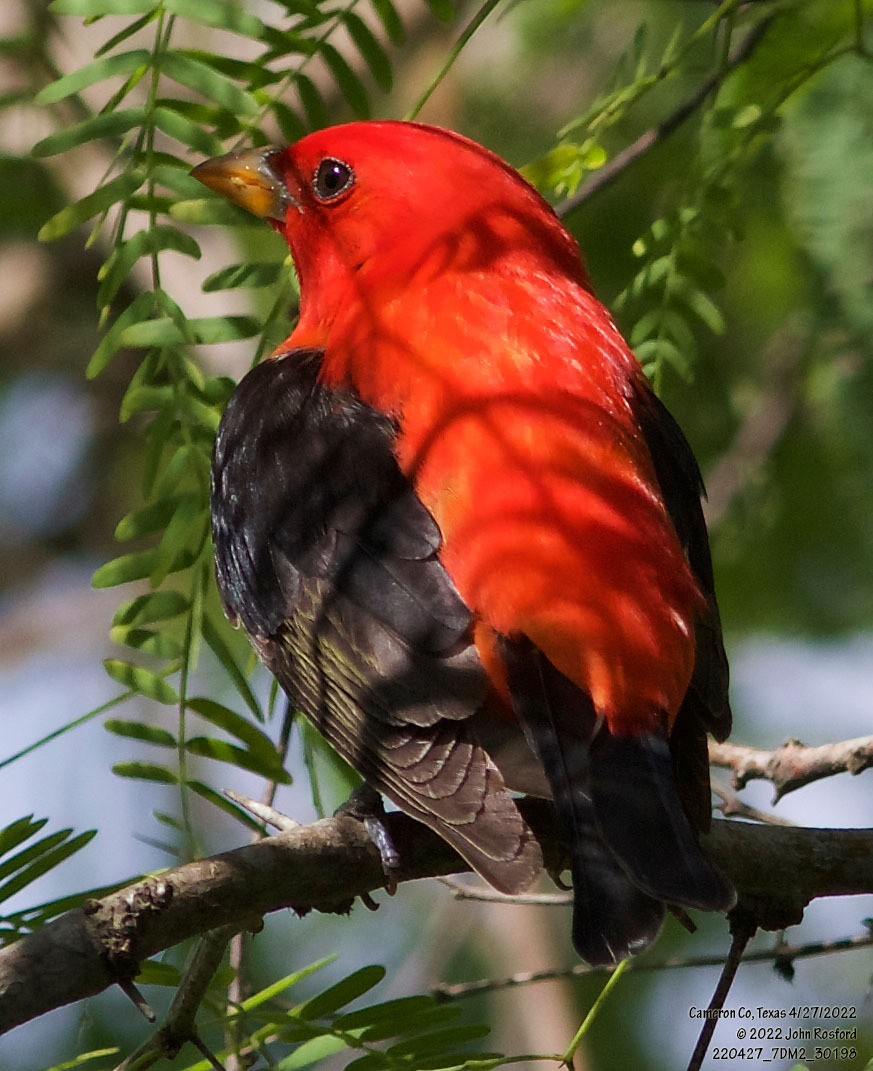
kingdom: Animalia
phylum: Chordata
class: Aves
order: Passeriformes
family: Cardinalidae
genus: Piranga
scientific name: Piranga olivacea
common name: Scarlet tanager
